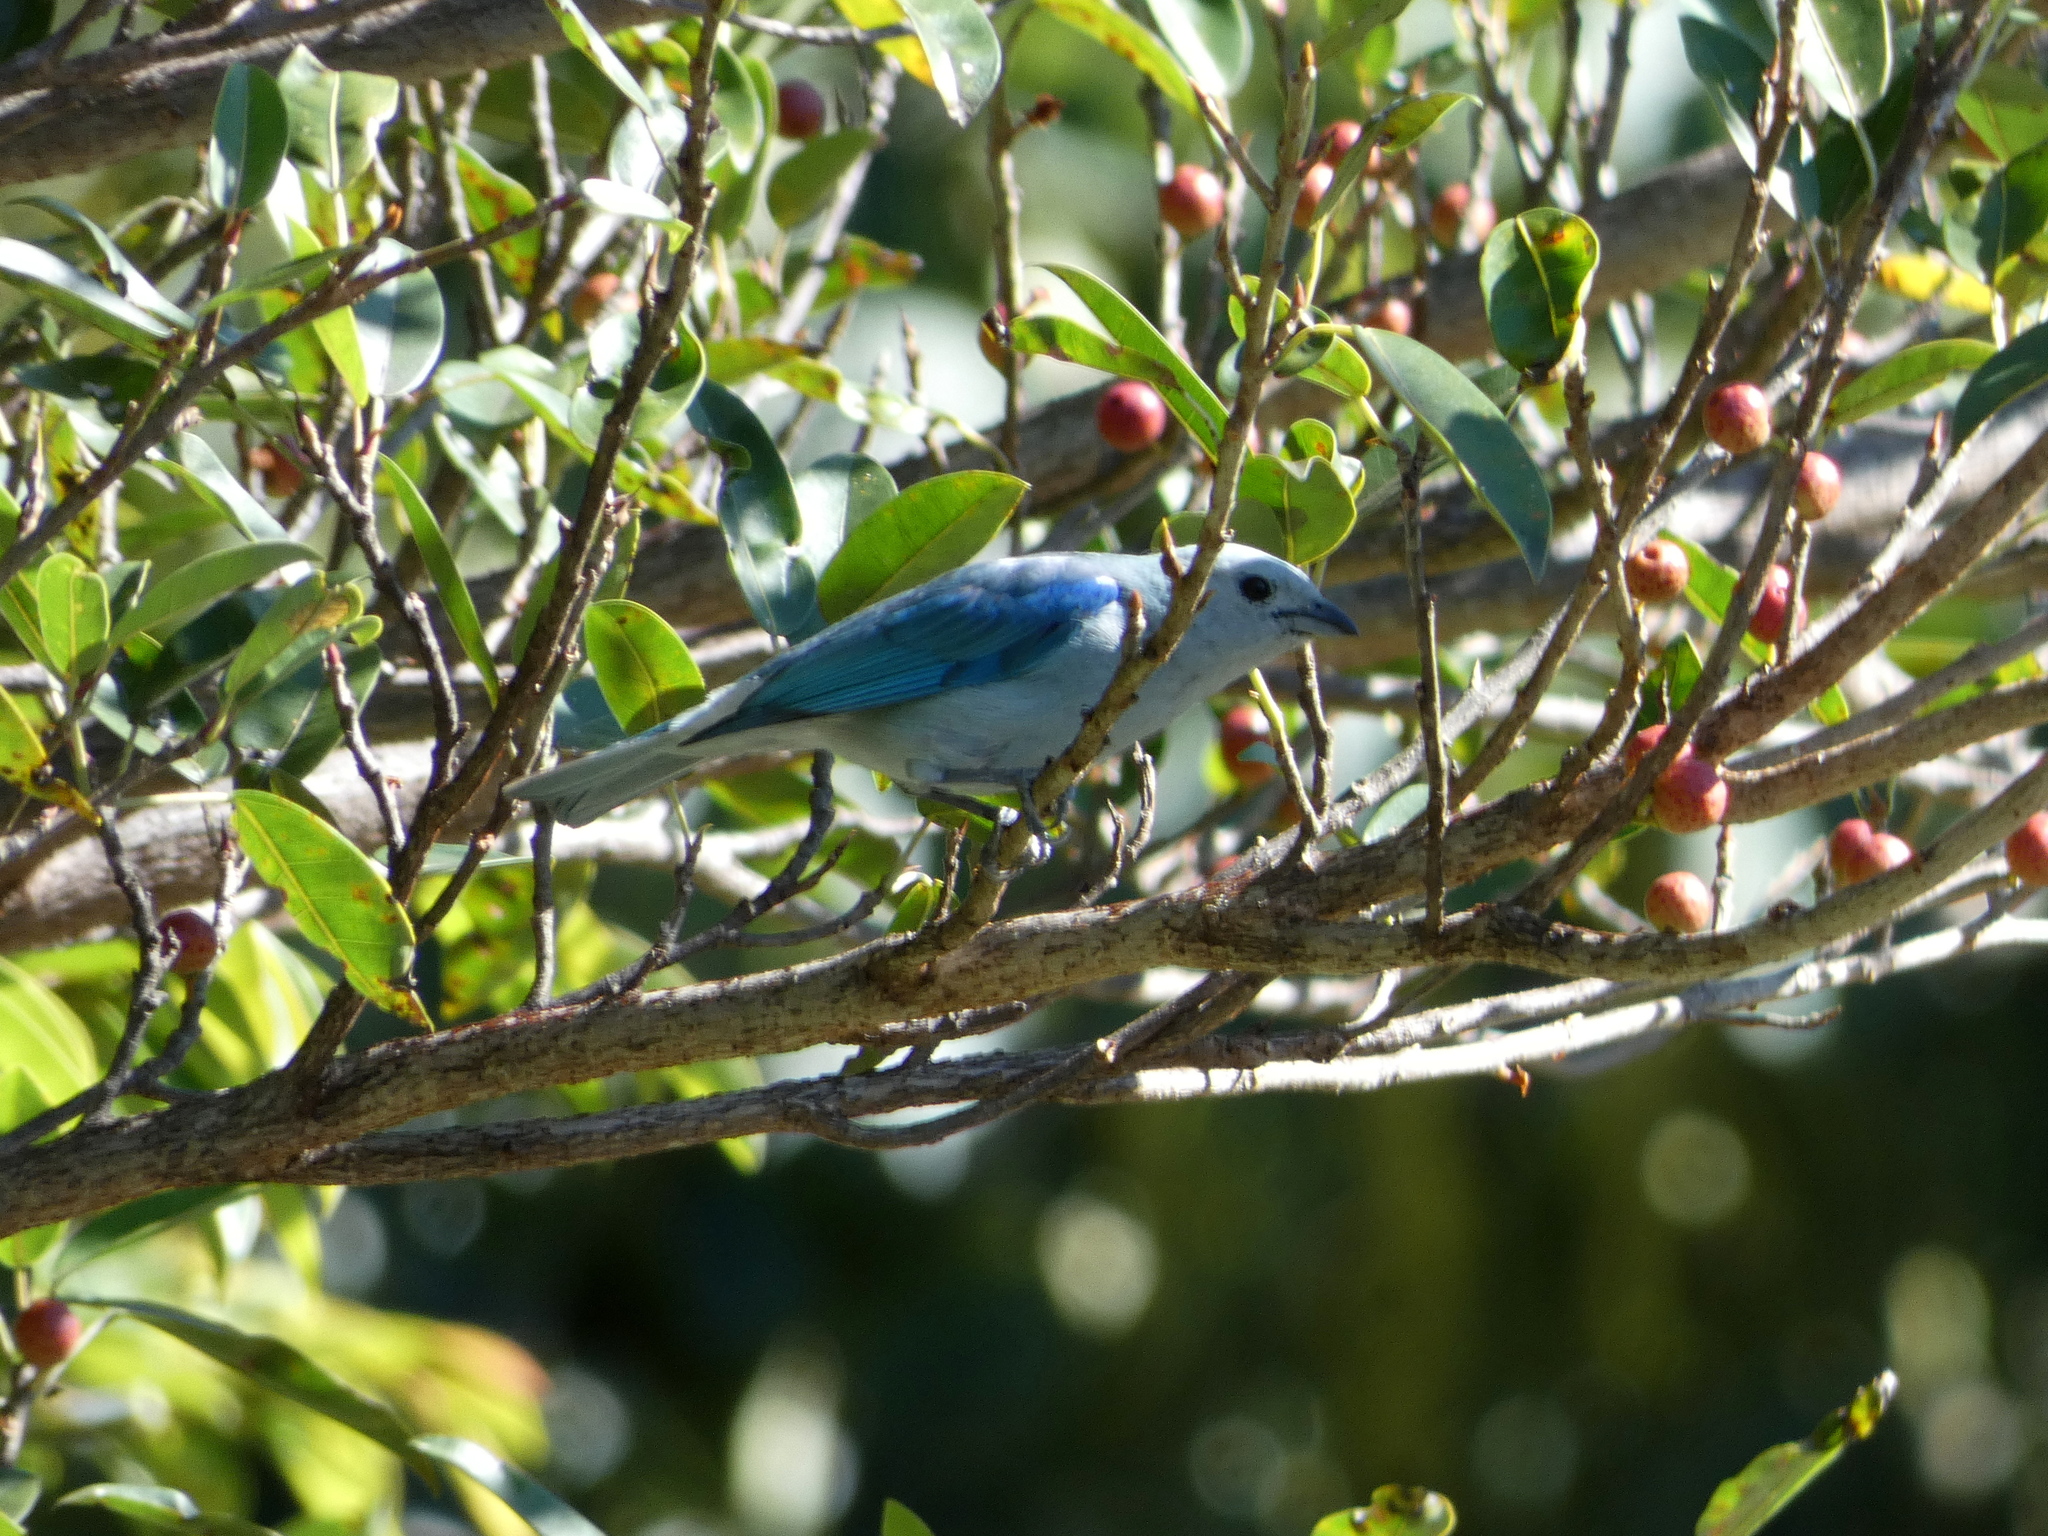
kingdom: Animalia
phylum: Chordata
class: Aves
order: Passeriformes
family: Thraupidae
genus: Thraupis
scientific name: Thraupis episcopus
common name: Blue-grey tanager
